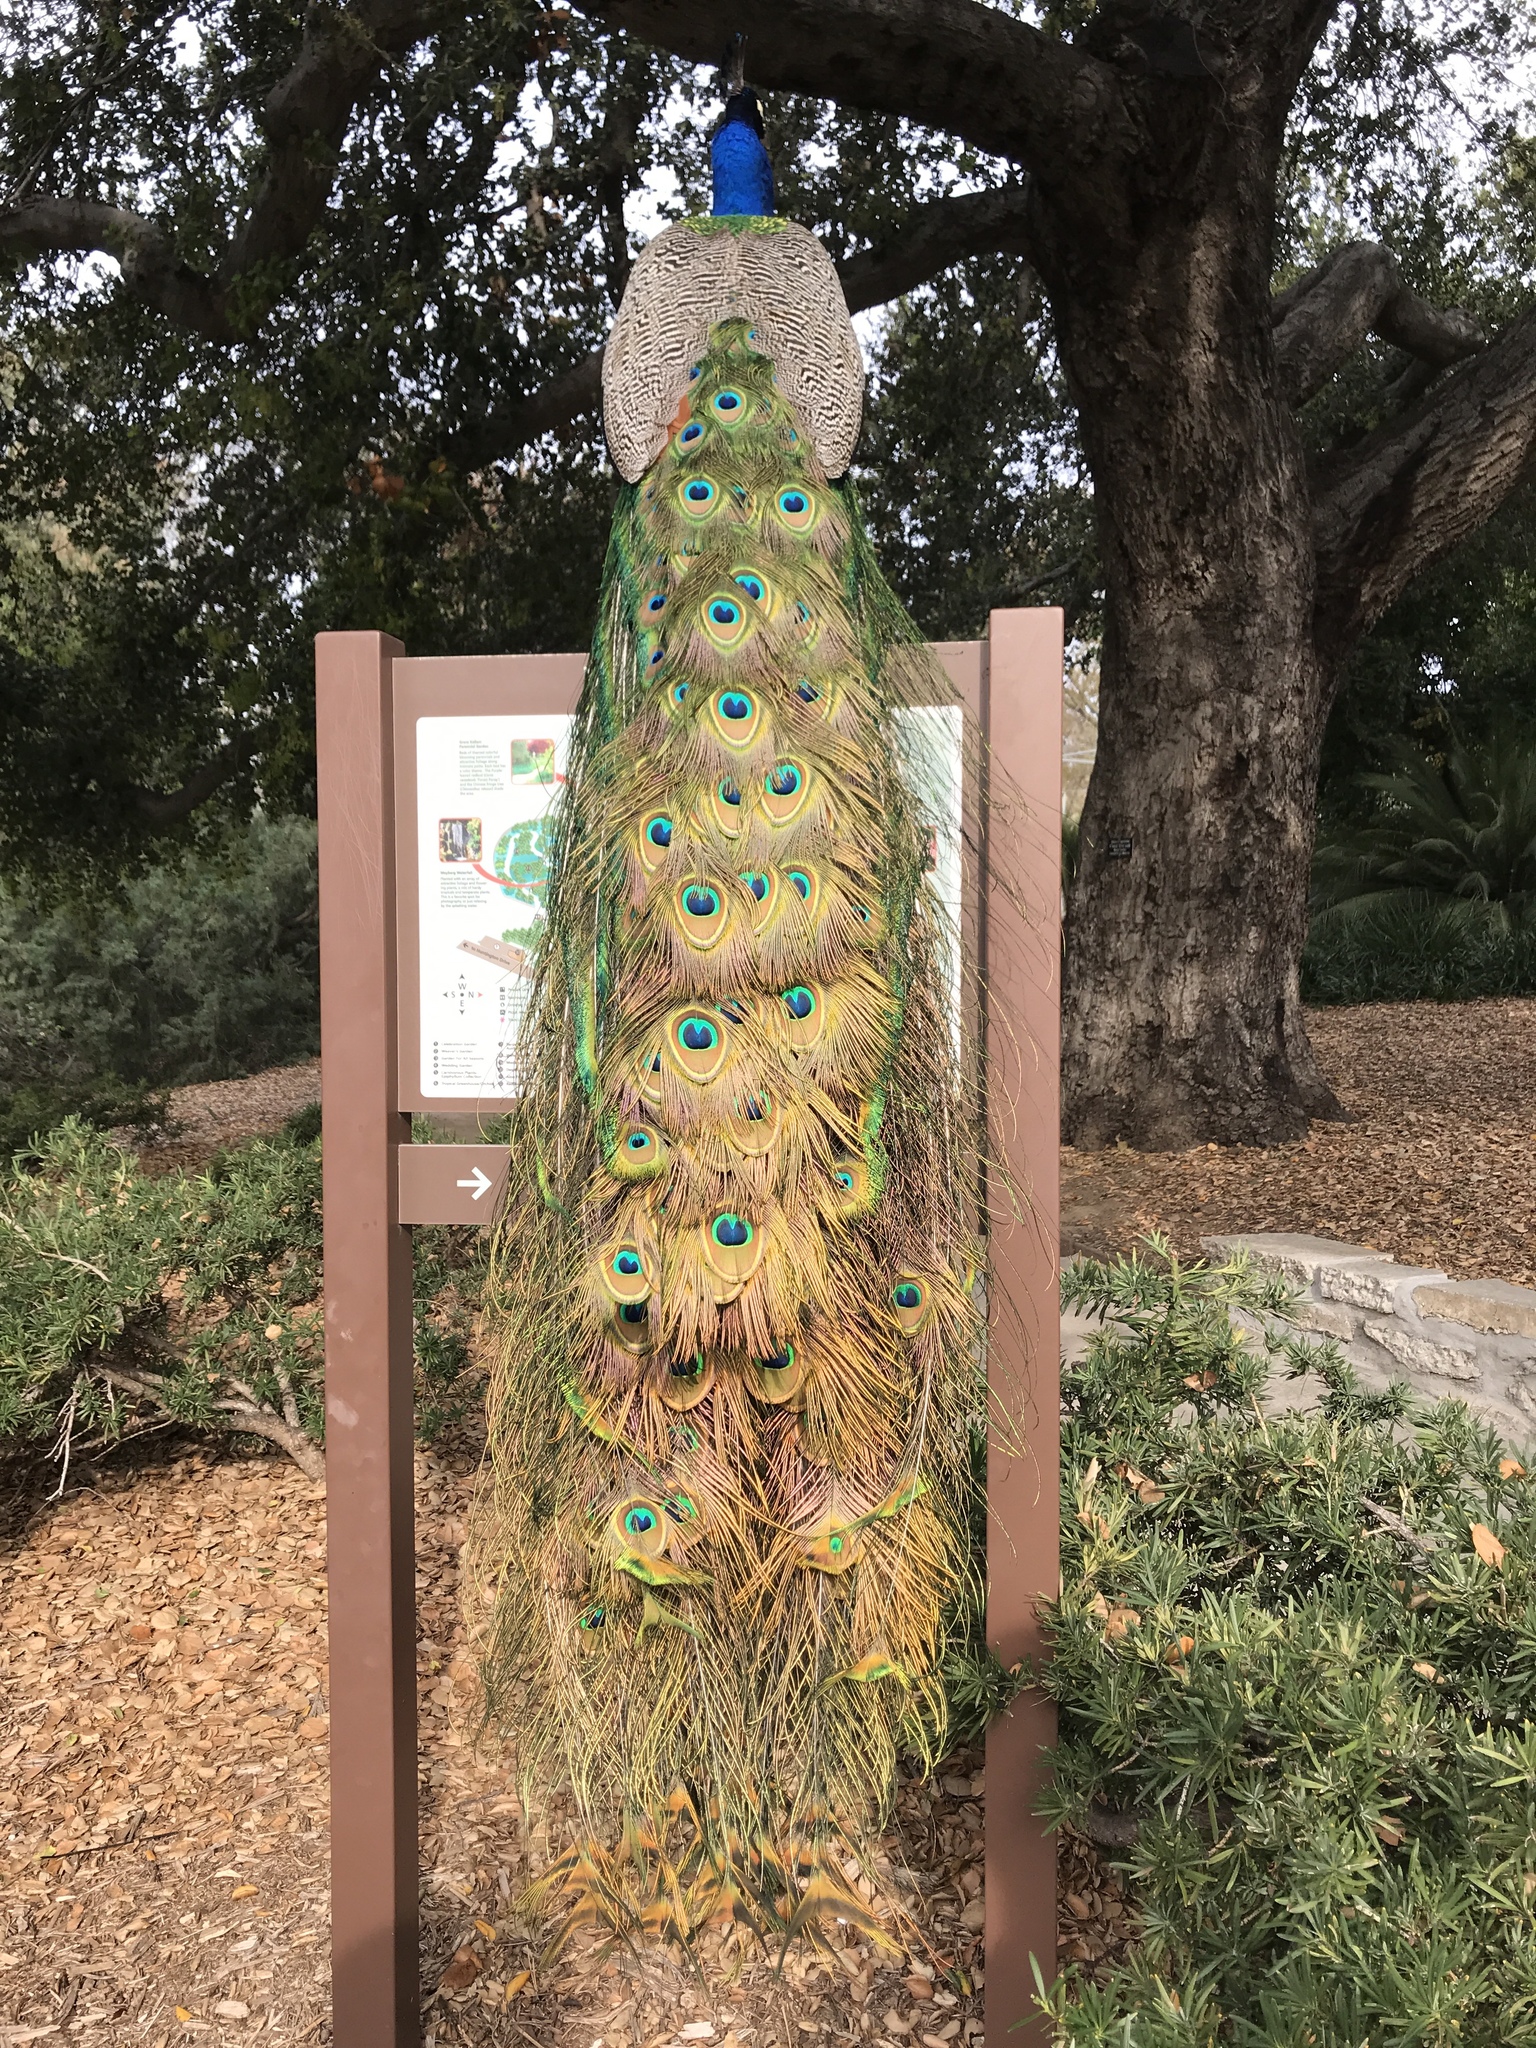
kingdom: Animalia
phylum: Chordata
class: Aves
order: Galliformes
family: Phasianidae
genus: Pavo
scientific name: Pavo cristatus
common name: Indian peafowl
